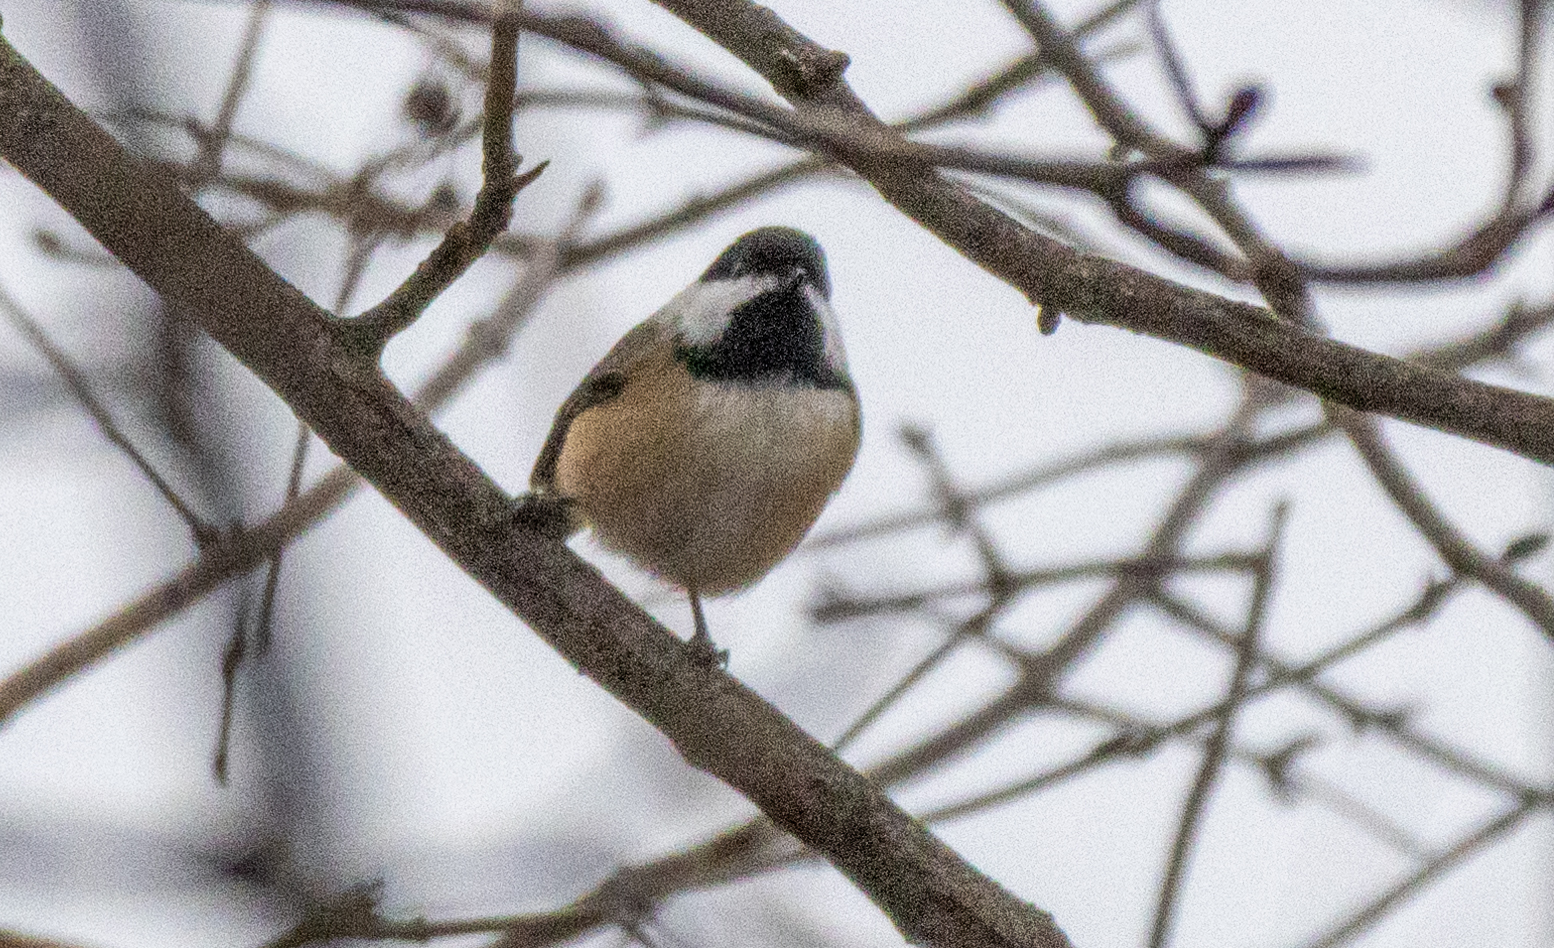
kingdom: Animalia
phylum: Chordata
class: Aves
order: Passeriformes
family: Paridae
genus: Poecile
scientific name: Poecile atricapillus
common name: Black-capped chickadee
